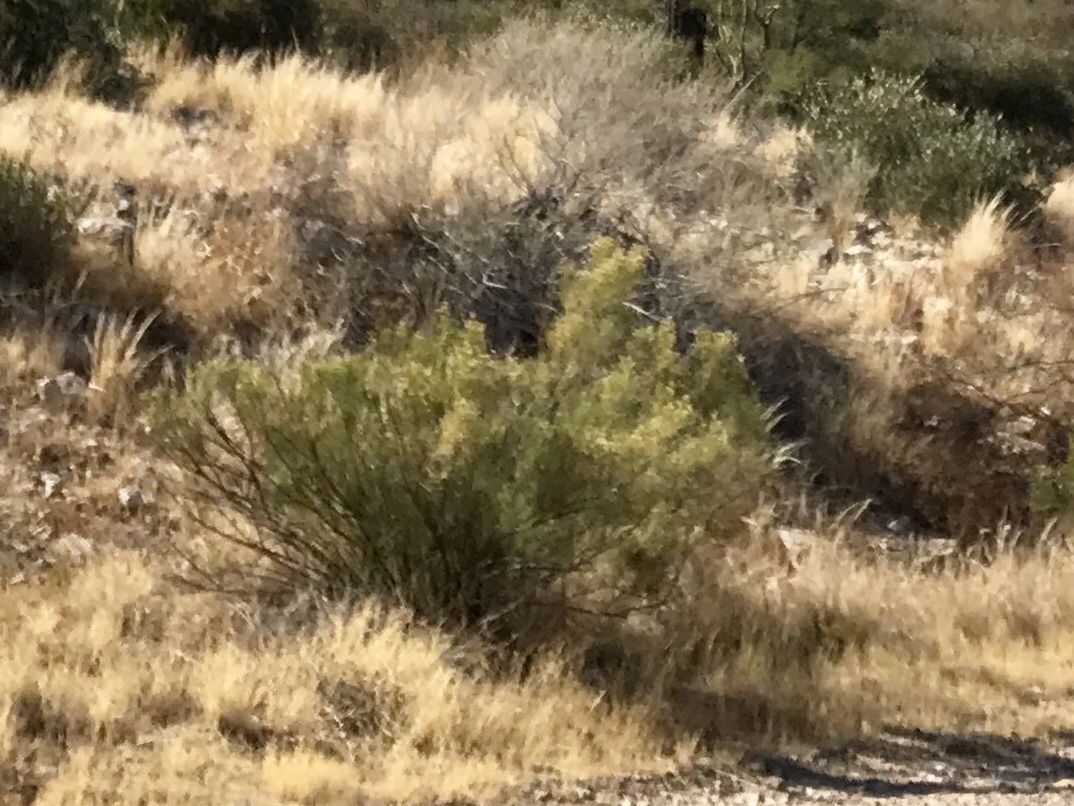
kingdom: Plantae
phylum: Tracheophyta
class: Magnoliopsida
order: Asterales
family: Asteraceae
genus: Baccharis
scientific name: Baccharis sarothroides
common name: Desert-broom
